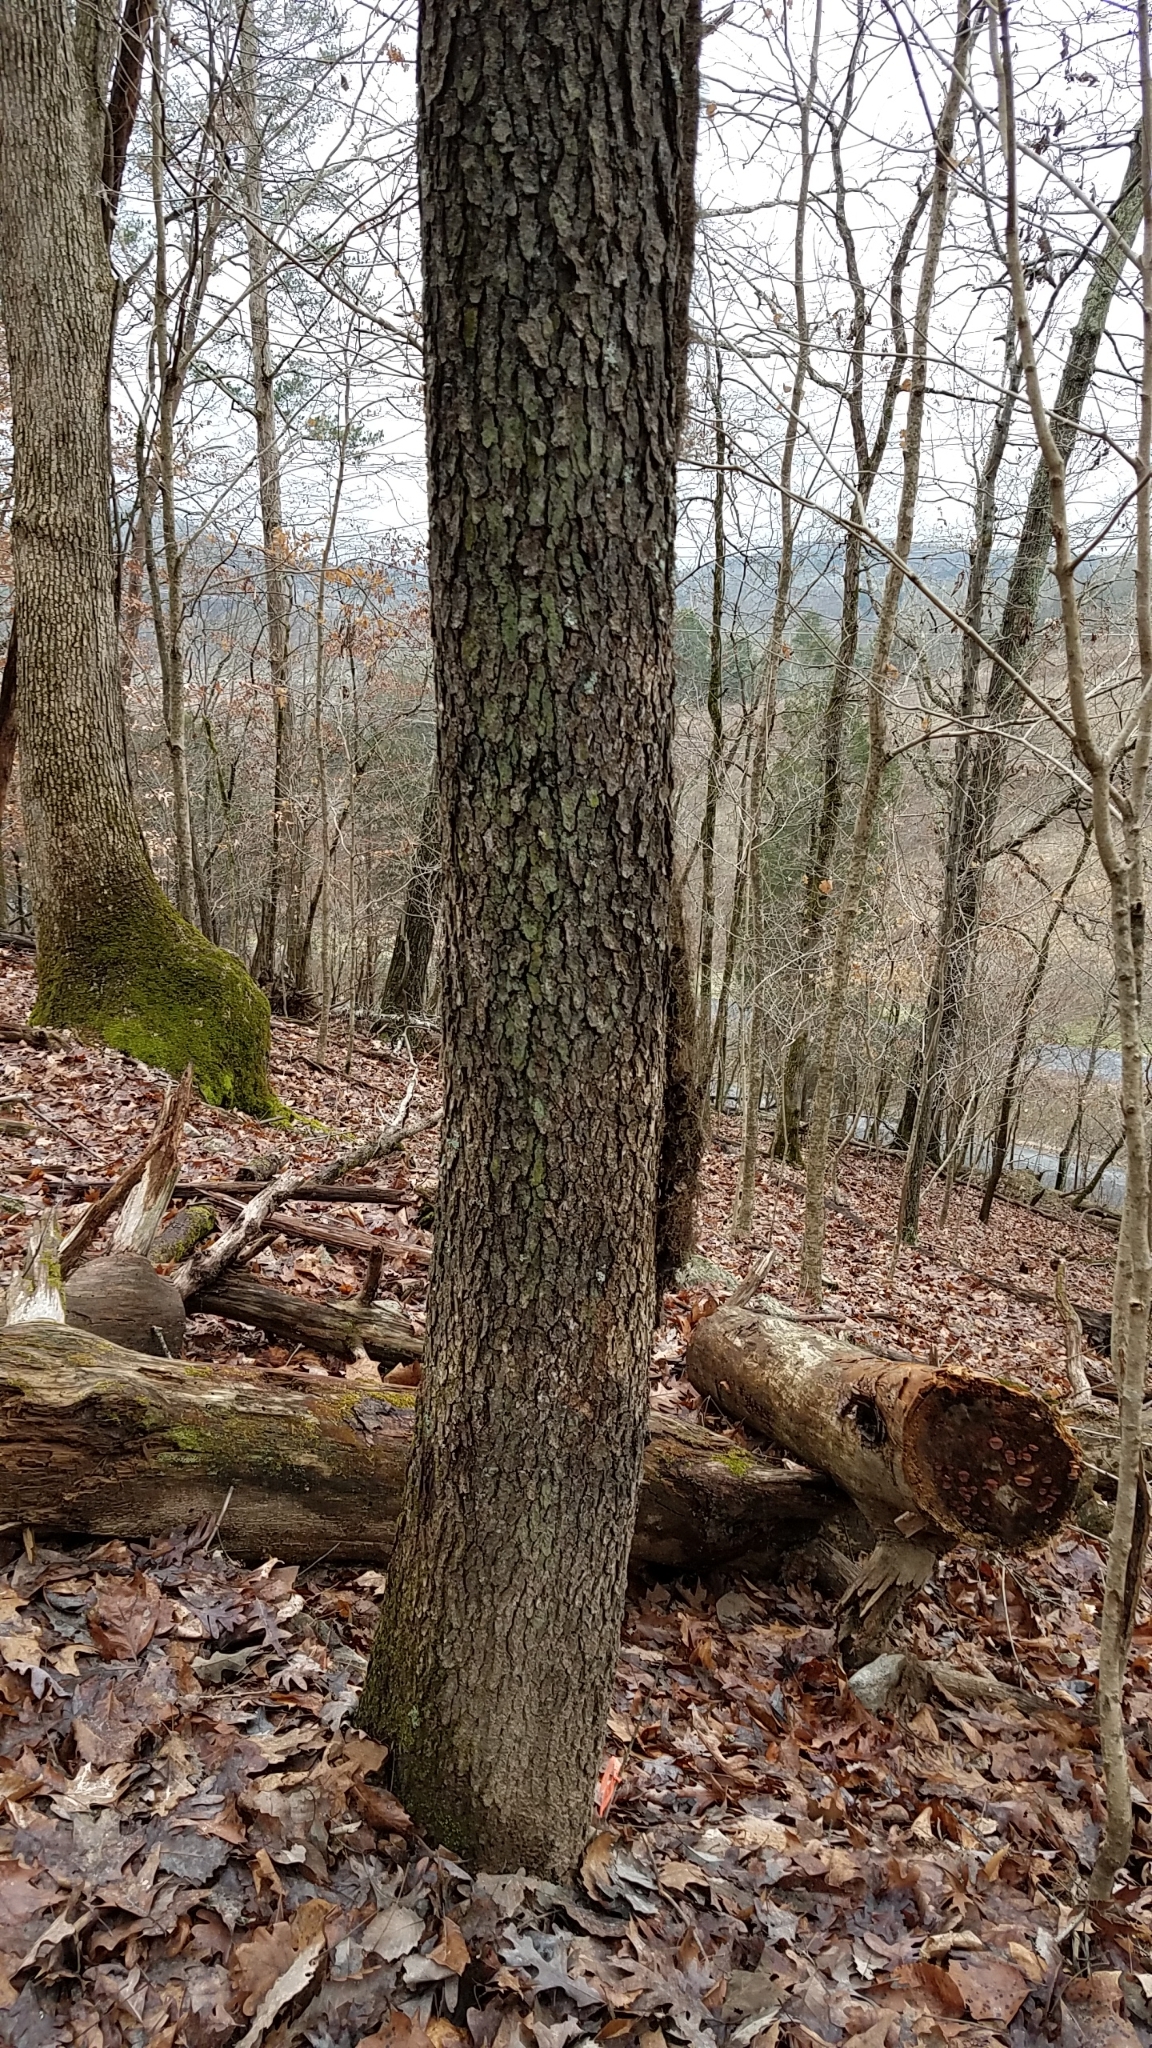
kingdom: Plantae
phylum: Tracheophyta
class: Magnoliopsida
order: Rosales
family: Rosaceae
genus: Prunus
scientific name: Prunus serotina
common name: Black cherry
